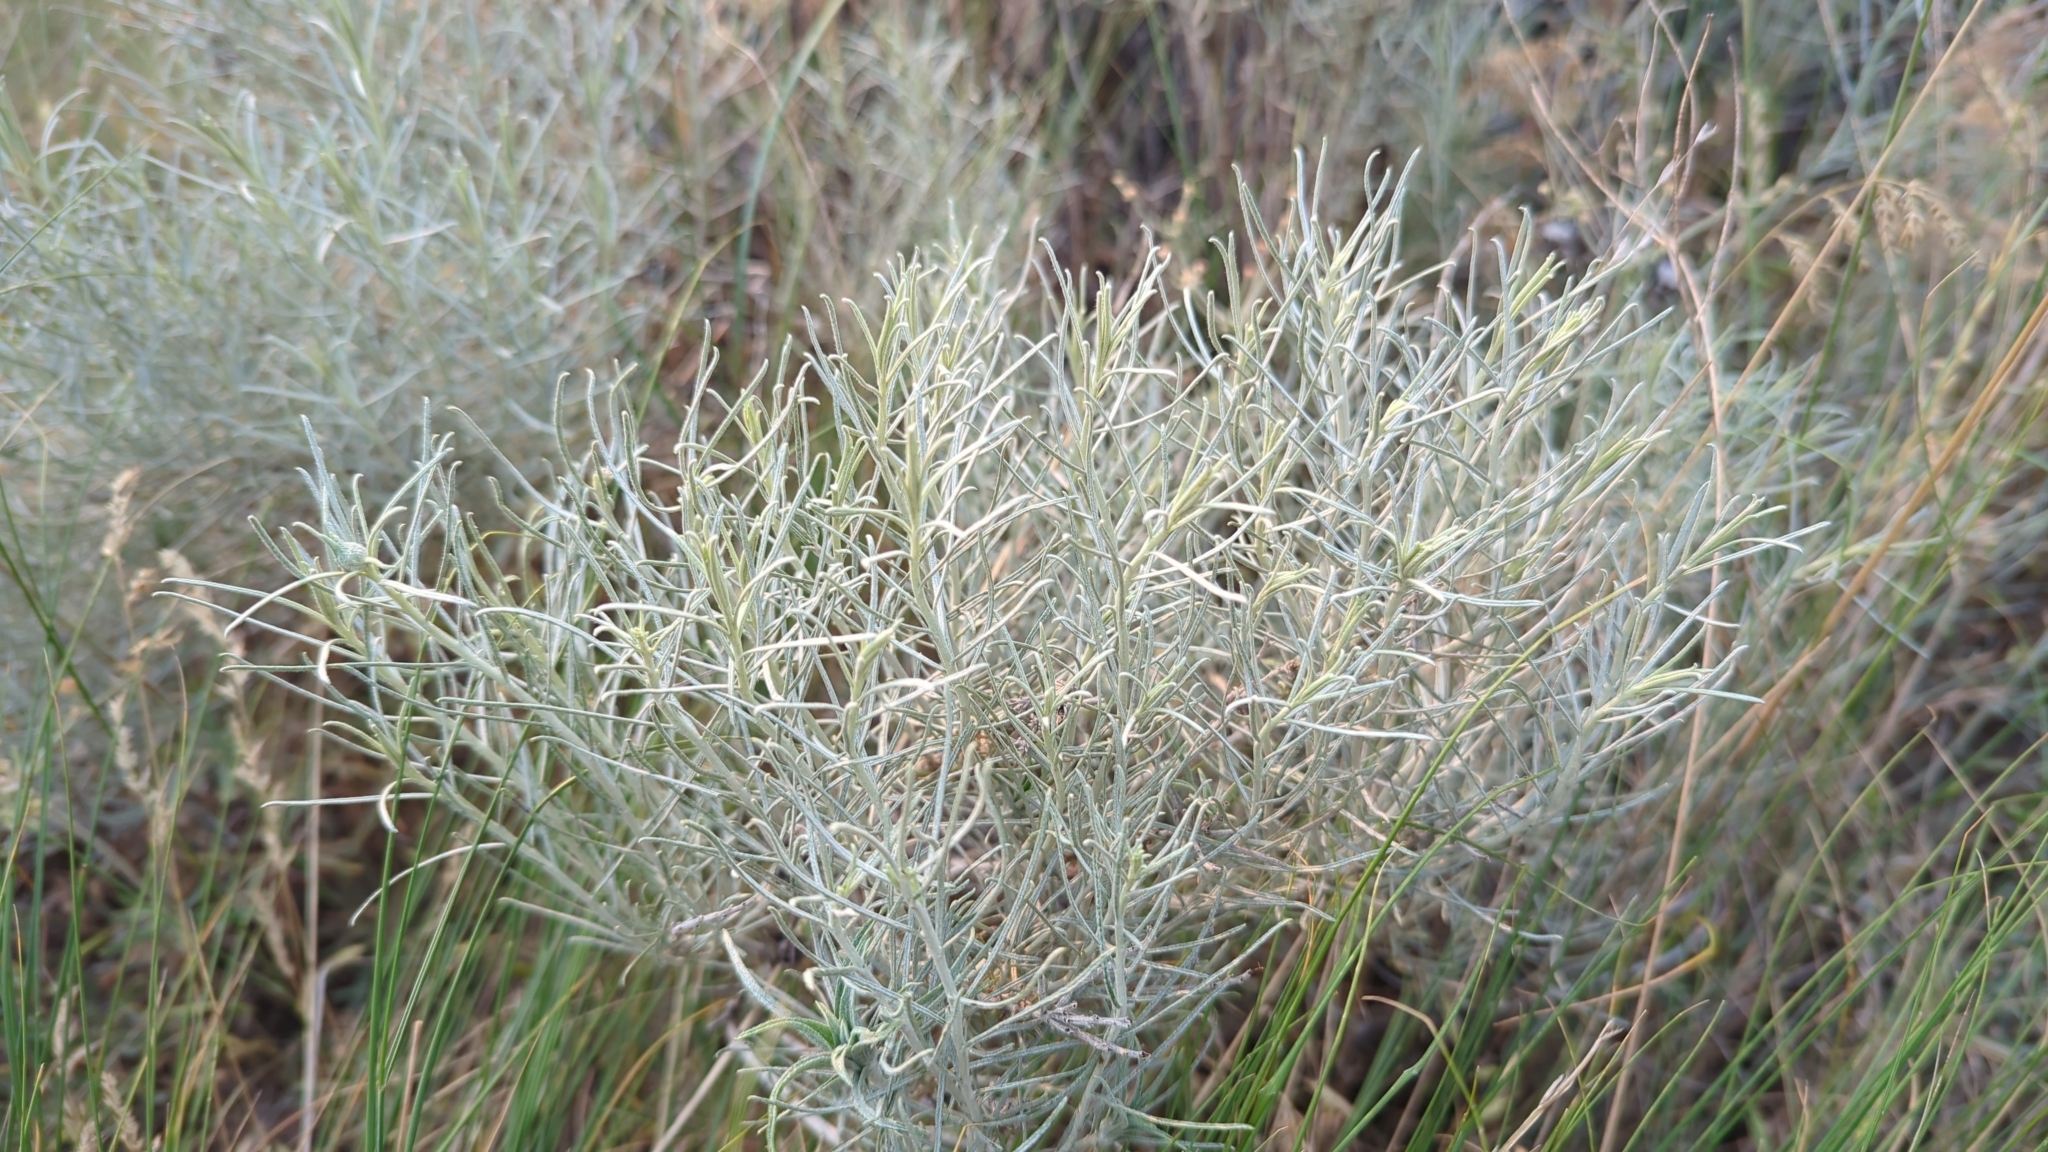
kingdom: Plantae
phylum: Tracheophyta
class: Magnoliopsida
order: Asterales
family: Asteraceae
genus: Ericameria
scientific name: Ericameria nauseosa
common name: Rubber rabbitbrush
